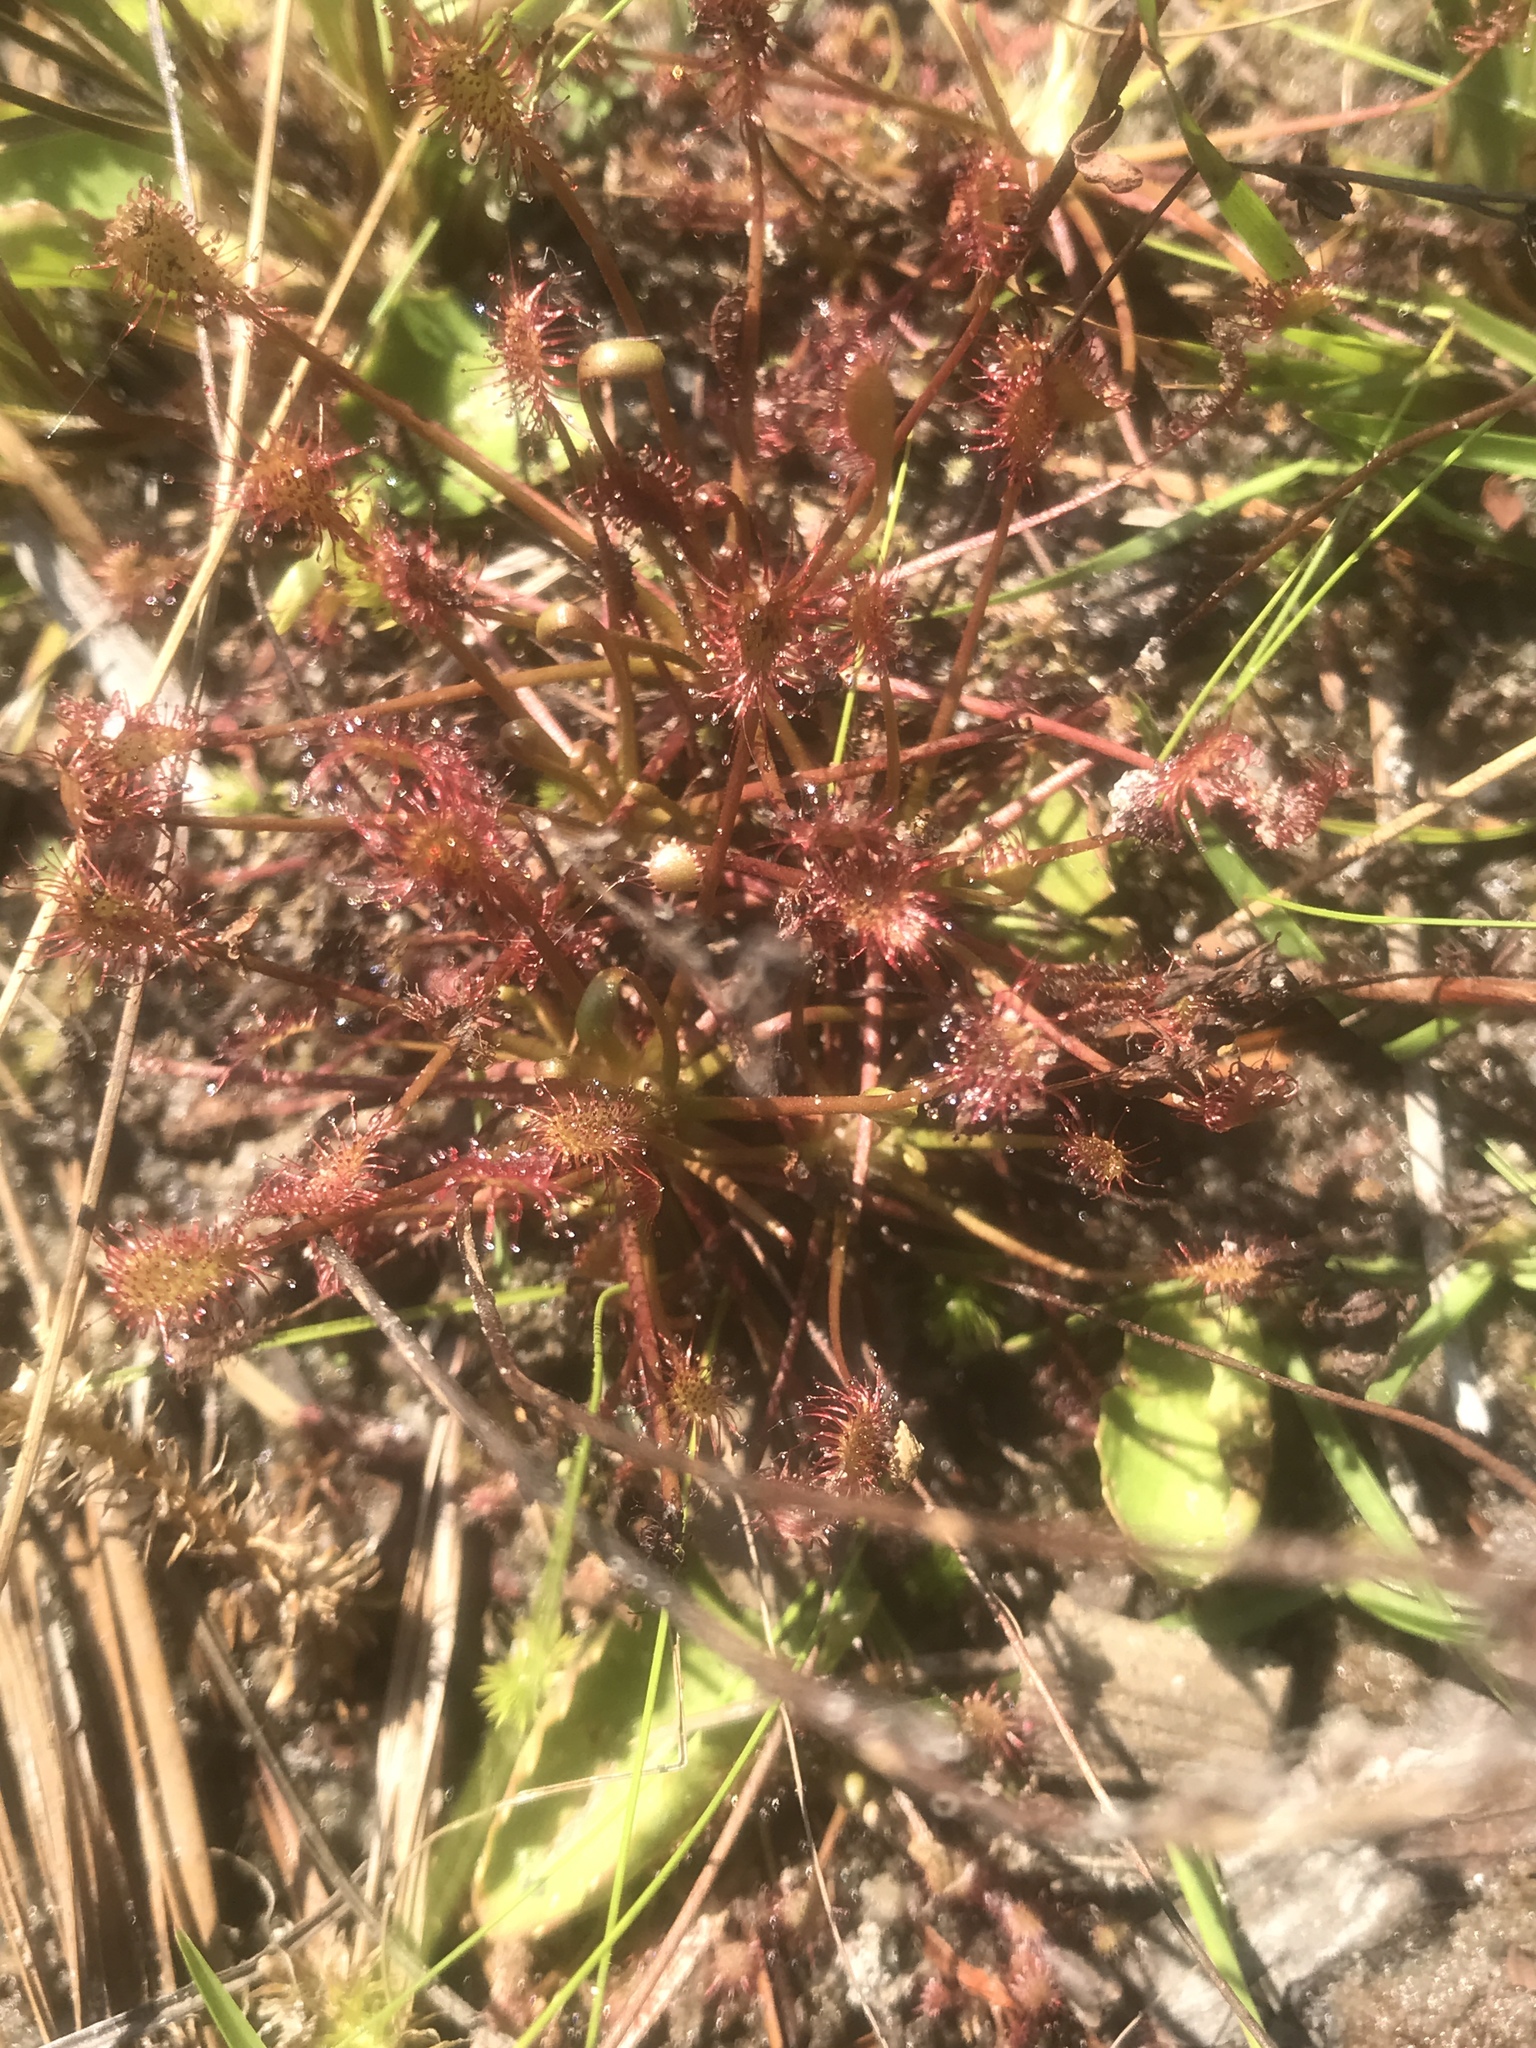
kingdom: Plantae
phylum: Tracheophyta
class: Magnoliopsida
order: Caryophyllales
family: Droseraceae
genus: Drosera
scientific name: Drosera intermedia
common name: Oblong-leaved sundew
